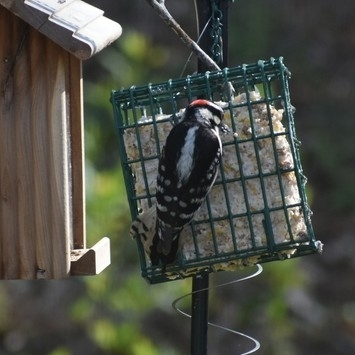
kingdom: Animalia
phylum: Chordata
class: Aves
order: Piciformes
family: Picidae
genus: Dryobates
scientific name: Dryobates pubescens
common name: Downy woodpecker
